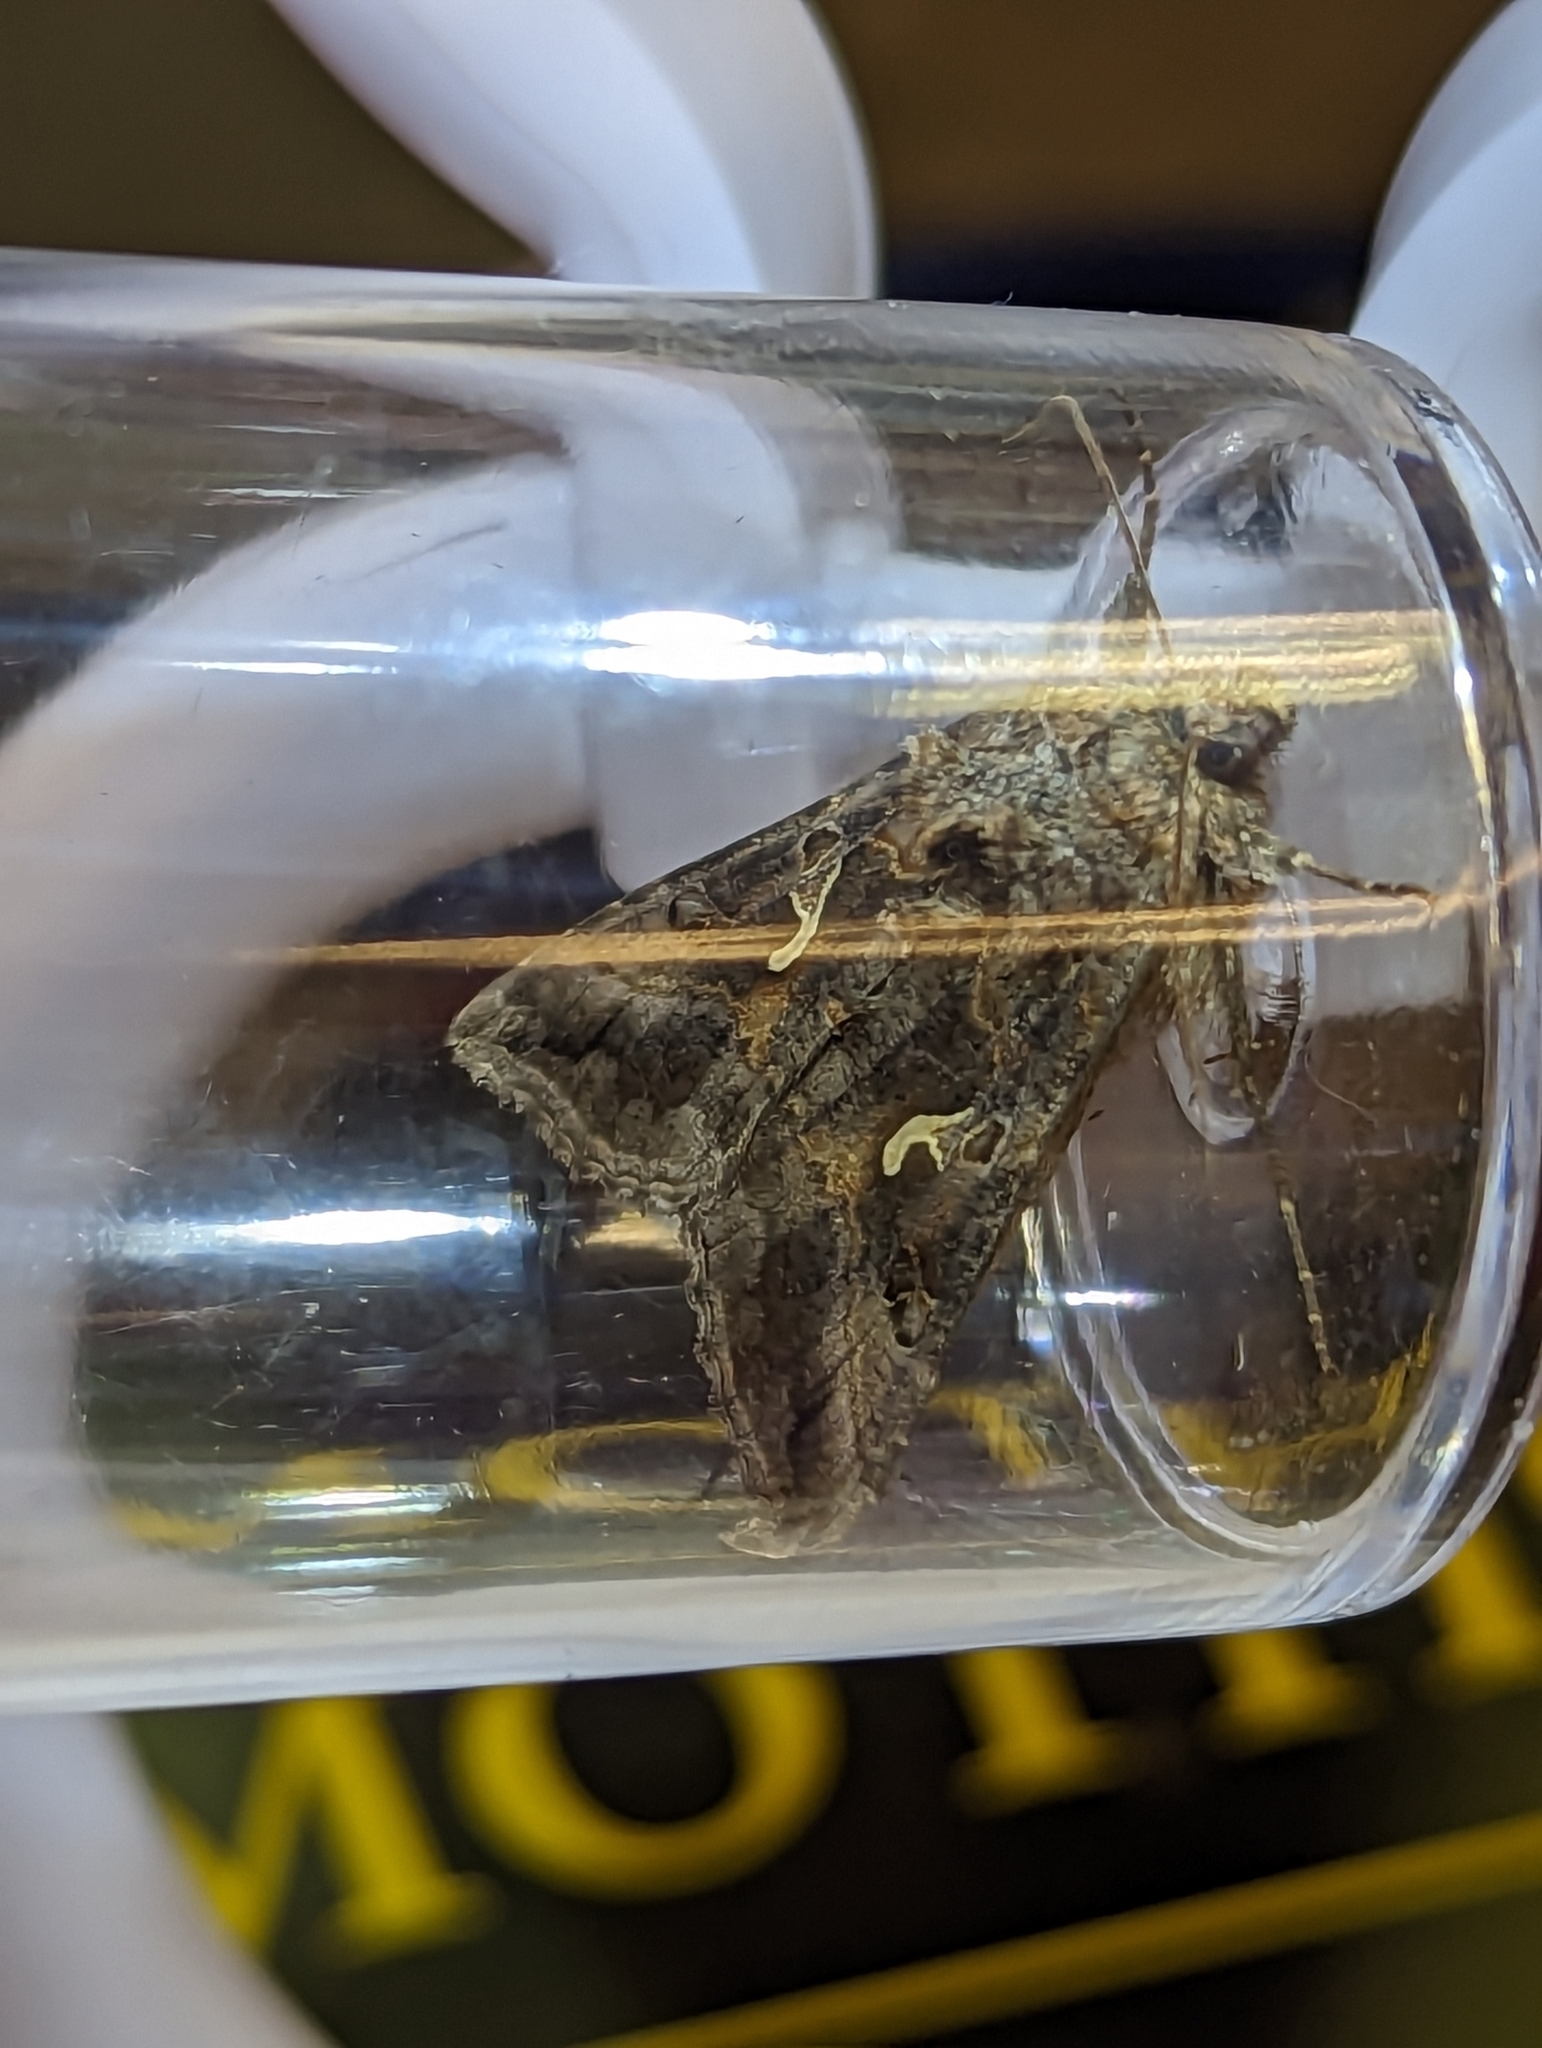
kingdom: Animalia
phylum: Arthropoda
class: Insecta
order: Lepidoptera
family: Noctuidae
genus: Autographa
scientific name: Autographa gamma
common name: Silver y
